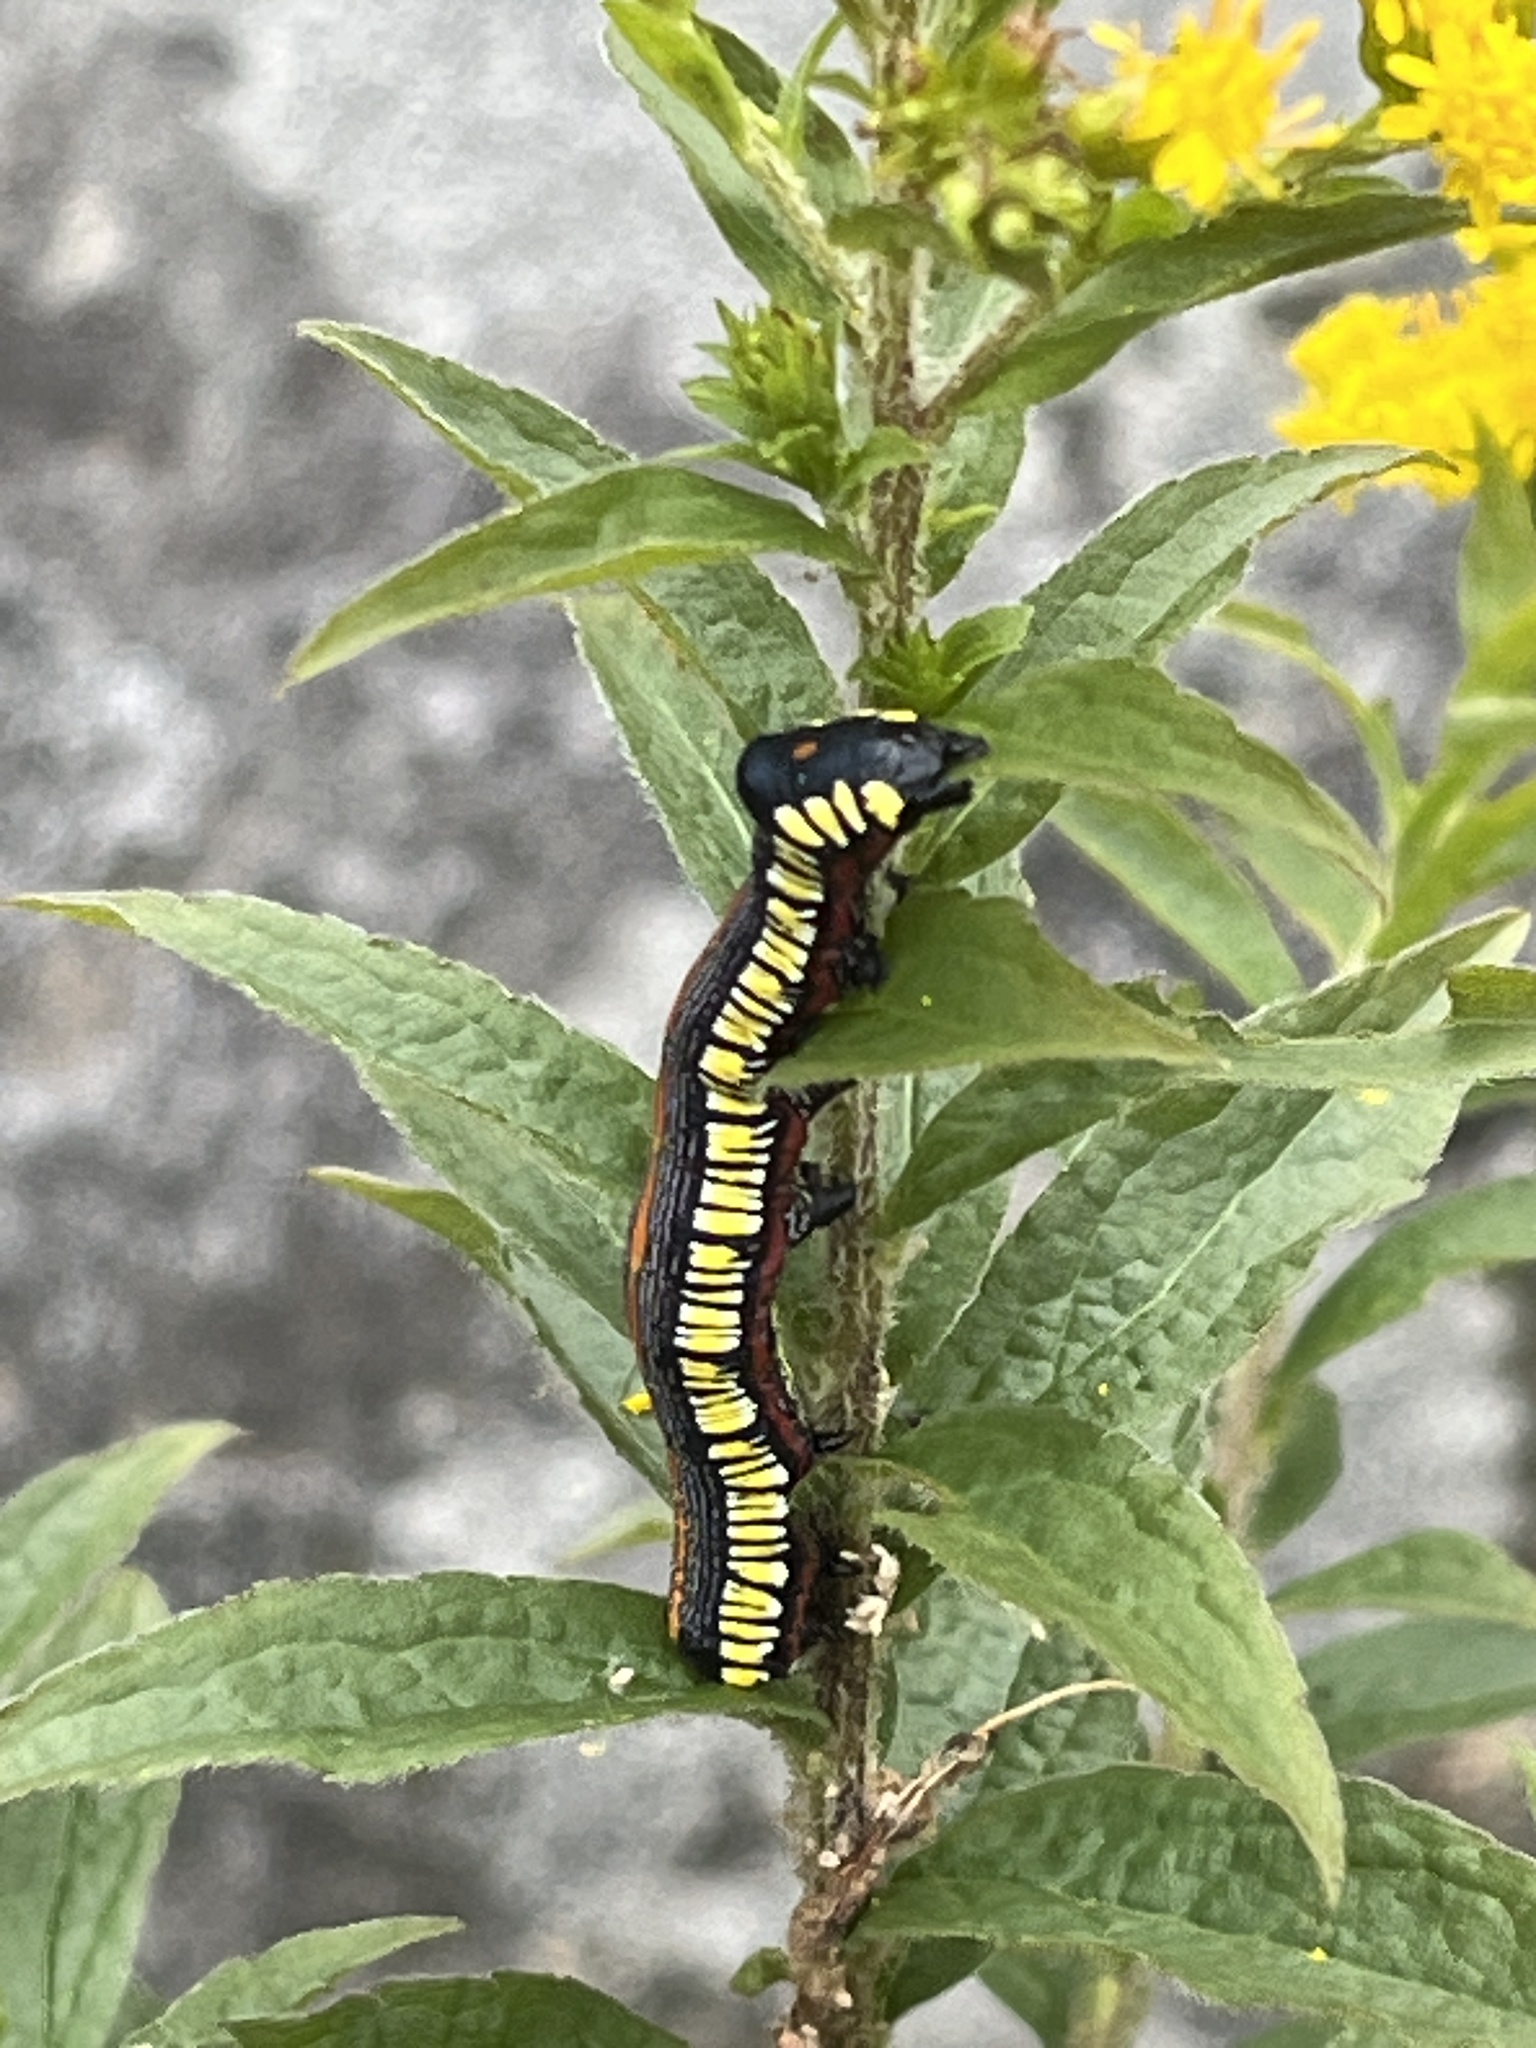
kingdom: Animalia
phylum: Arthropoda
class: Insecta
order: Lepidoptera
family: Noctuidae
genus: Cucullia
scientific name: Cucullia convexipennis
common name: Brown-hooded owlet
